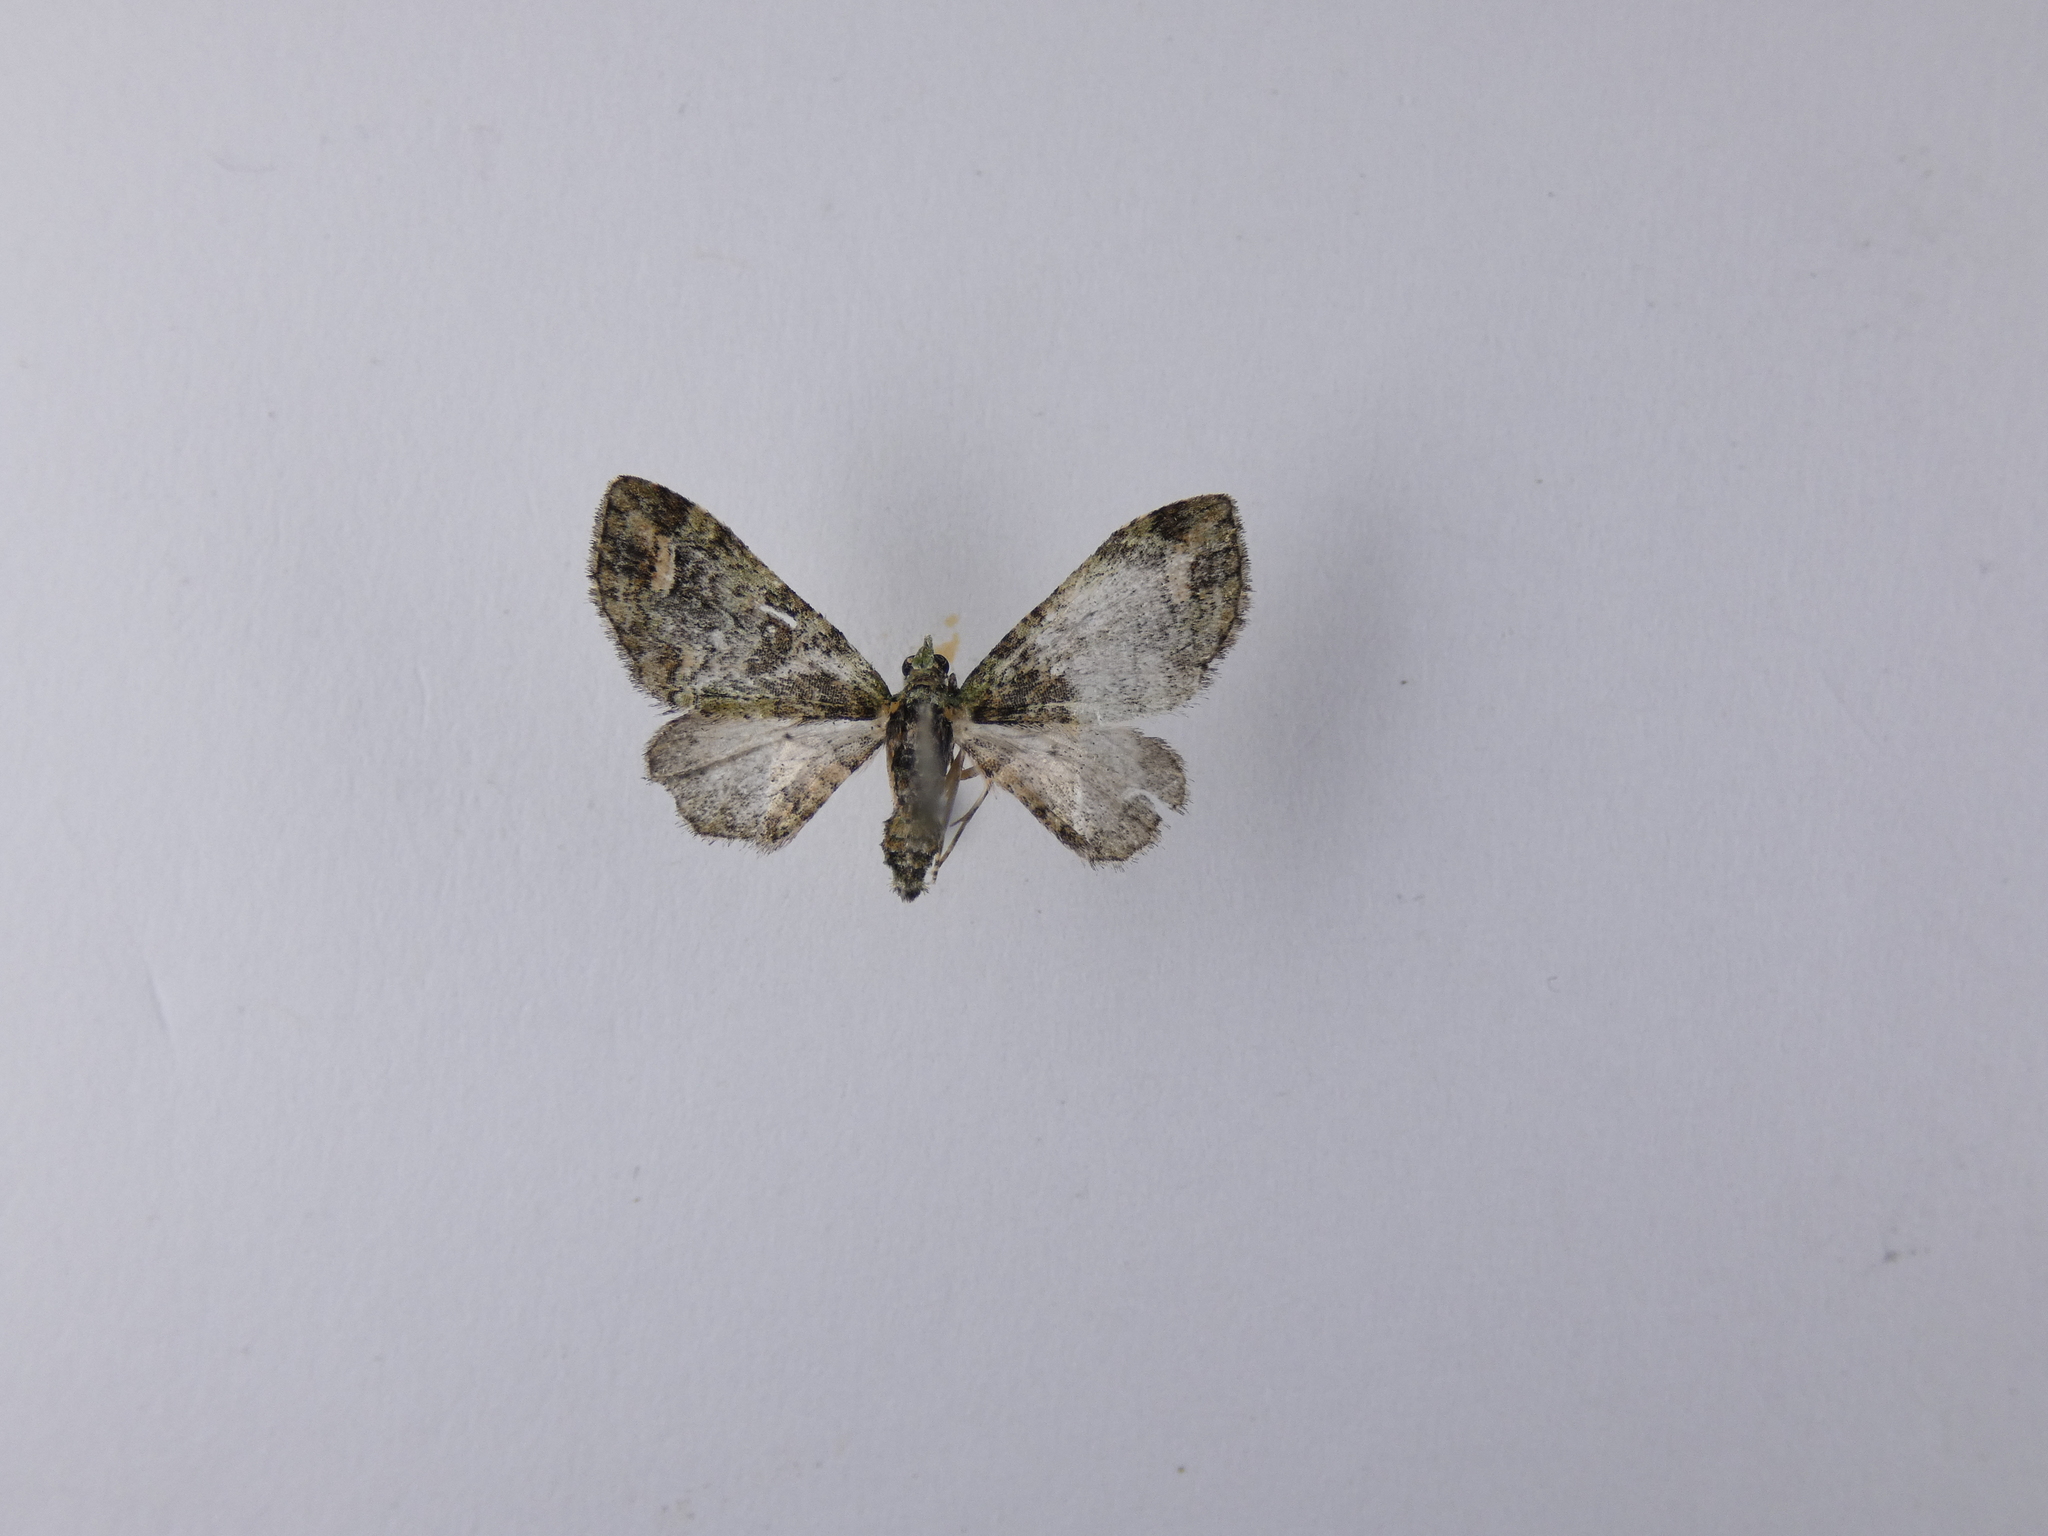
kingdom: Animalia
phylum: Arthropoda
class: Insecta
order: Lepidoptera
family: Geometridae
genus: Idaea
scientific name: Idaea mutanda
